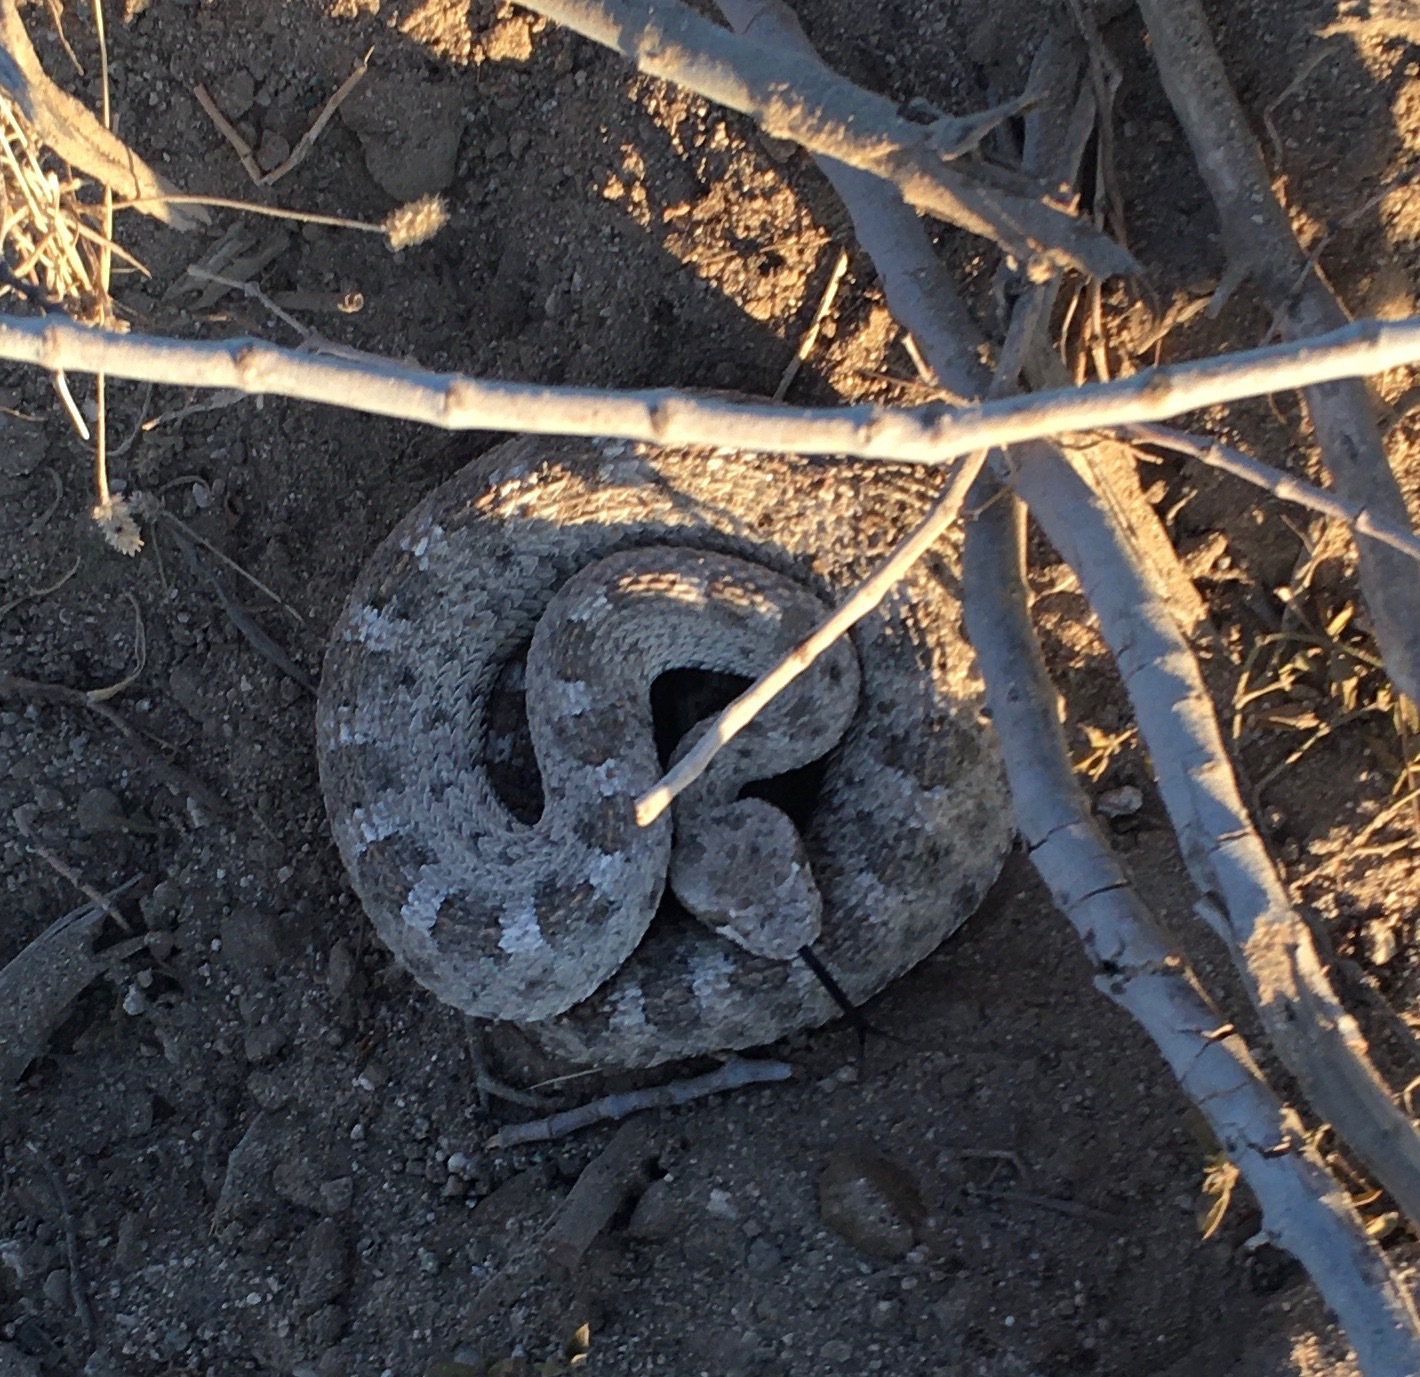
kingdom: Animalia
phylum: Chordata
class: Squamata
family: Viperidae
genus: Crotalus
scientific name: Crotalus cerastes
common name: Sidewinder
